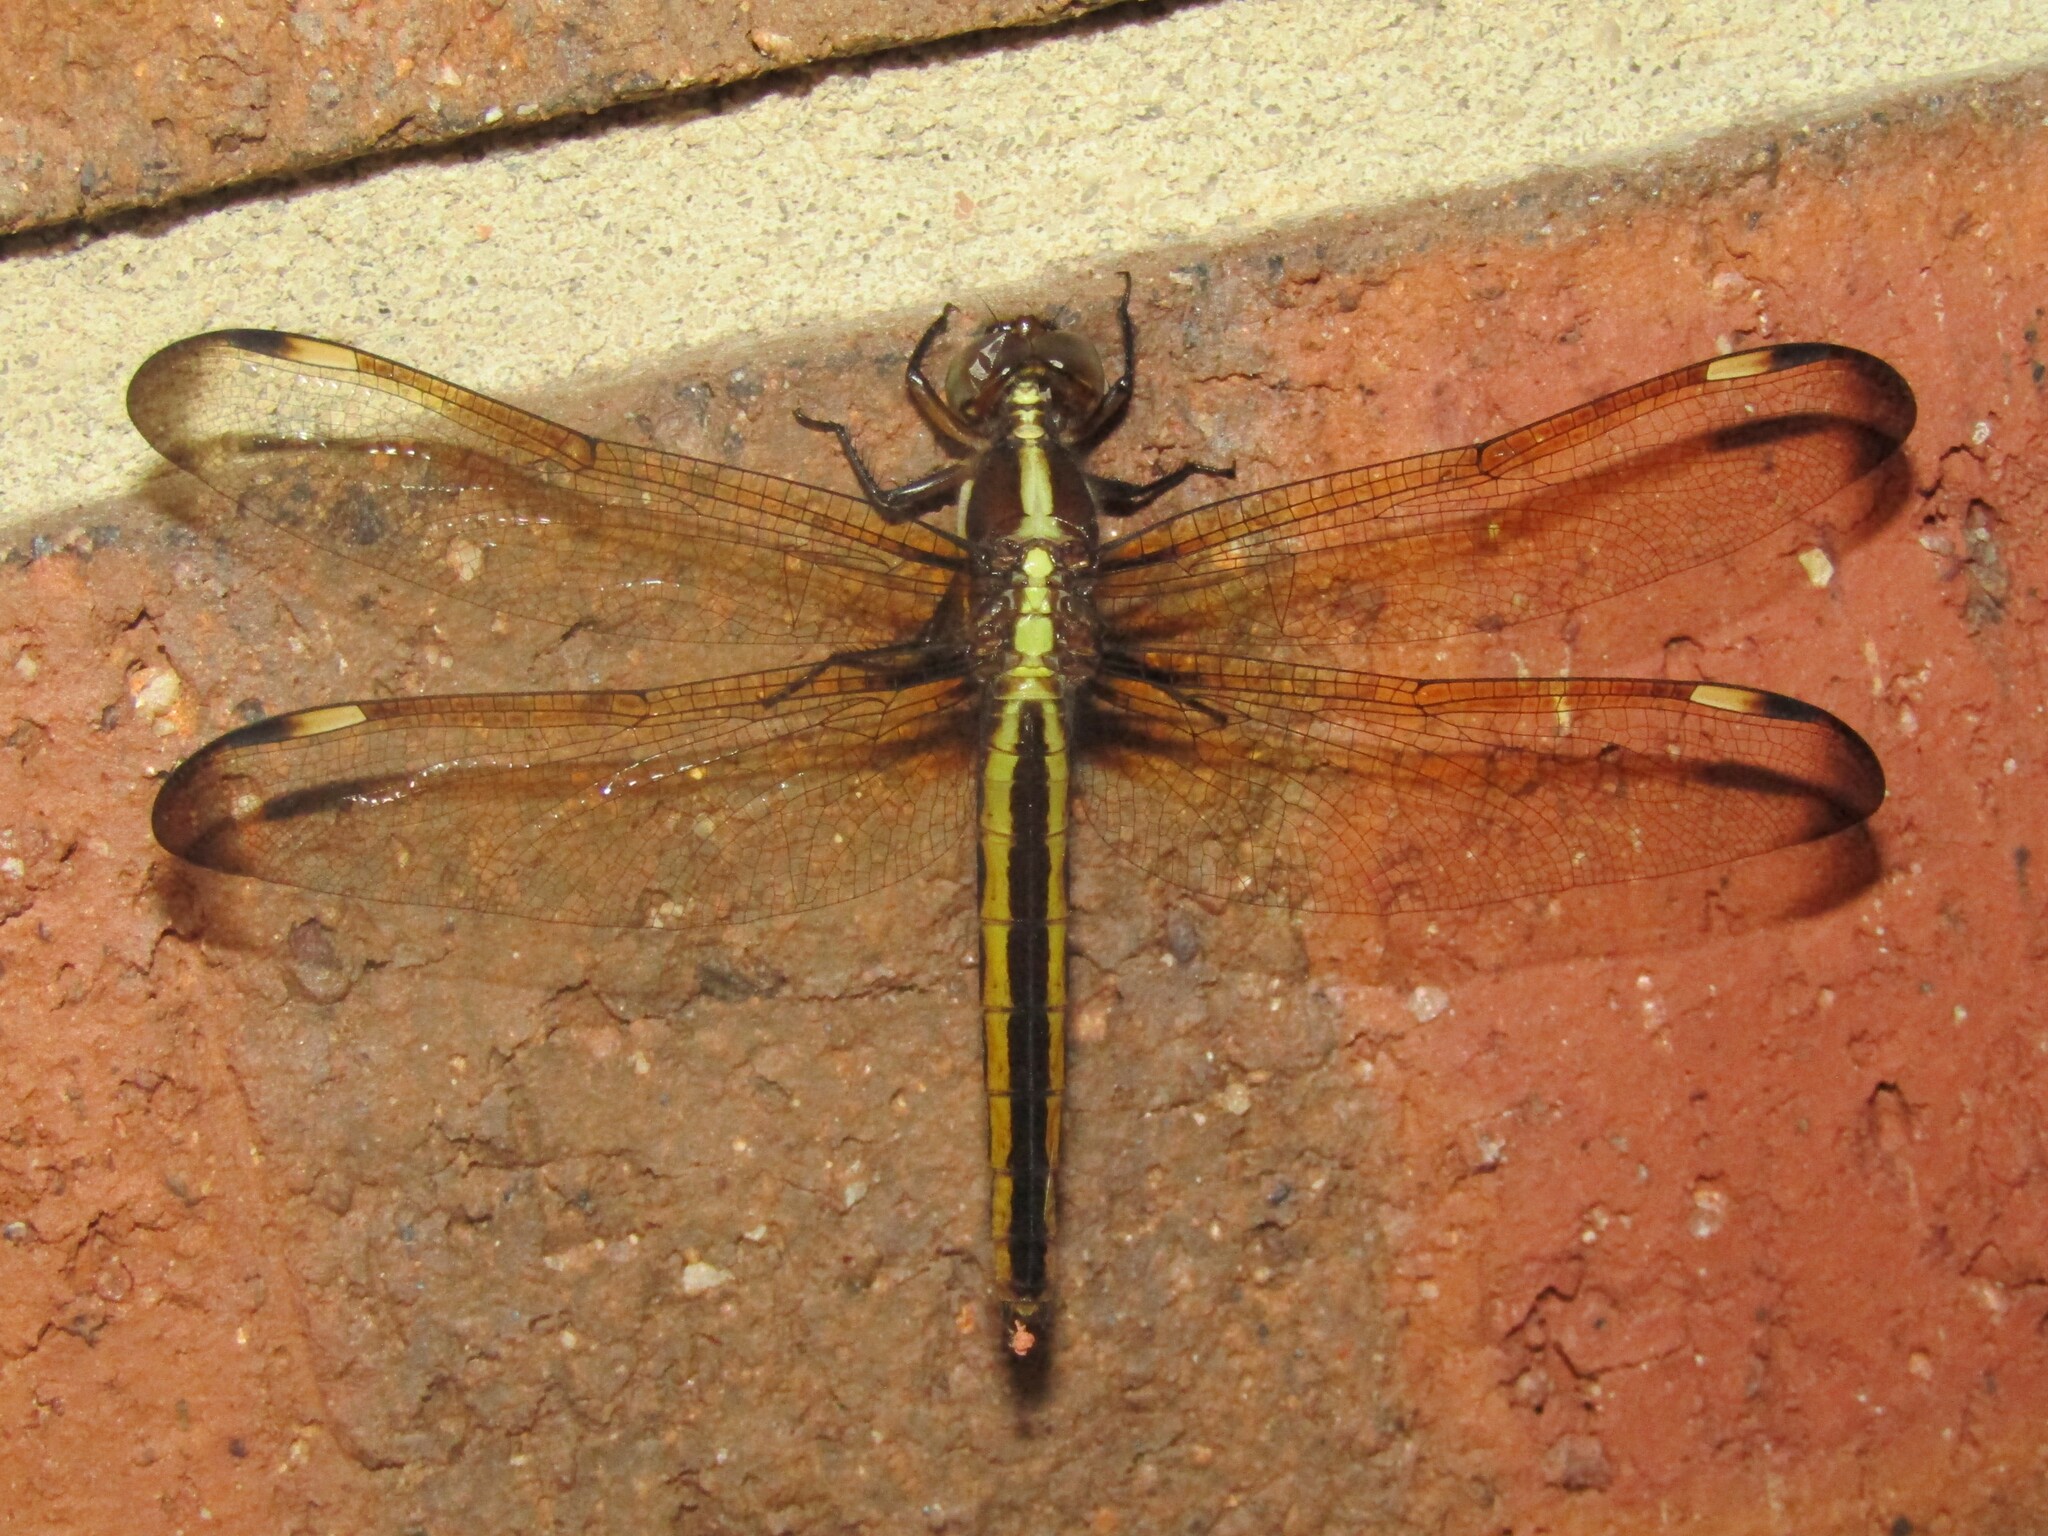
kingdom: Animalia
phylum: Arthropoda
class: Insecta
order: Odonata
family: Libellulidae
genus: Libellula
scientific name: Libellula cyanea
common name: Spangled skimmer
